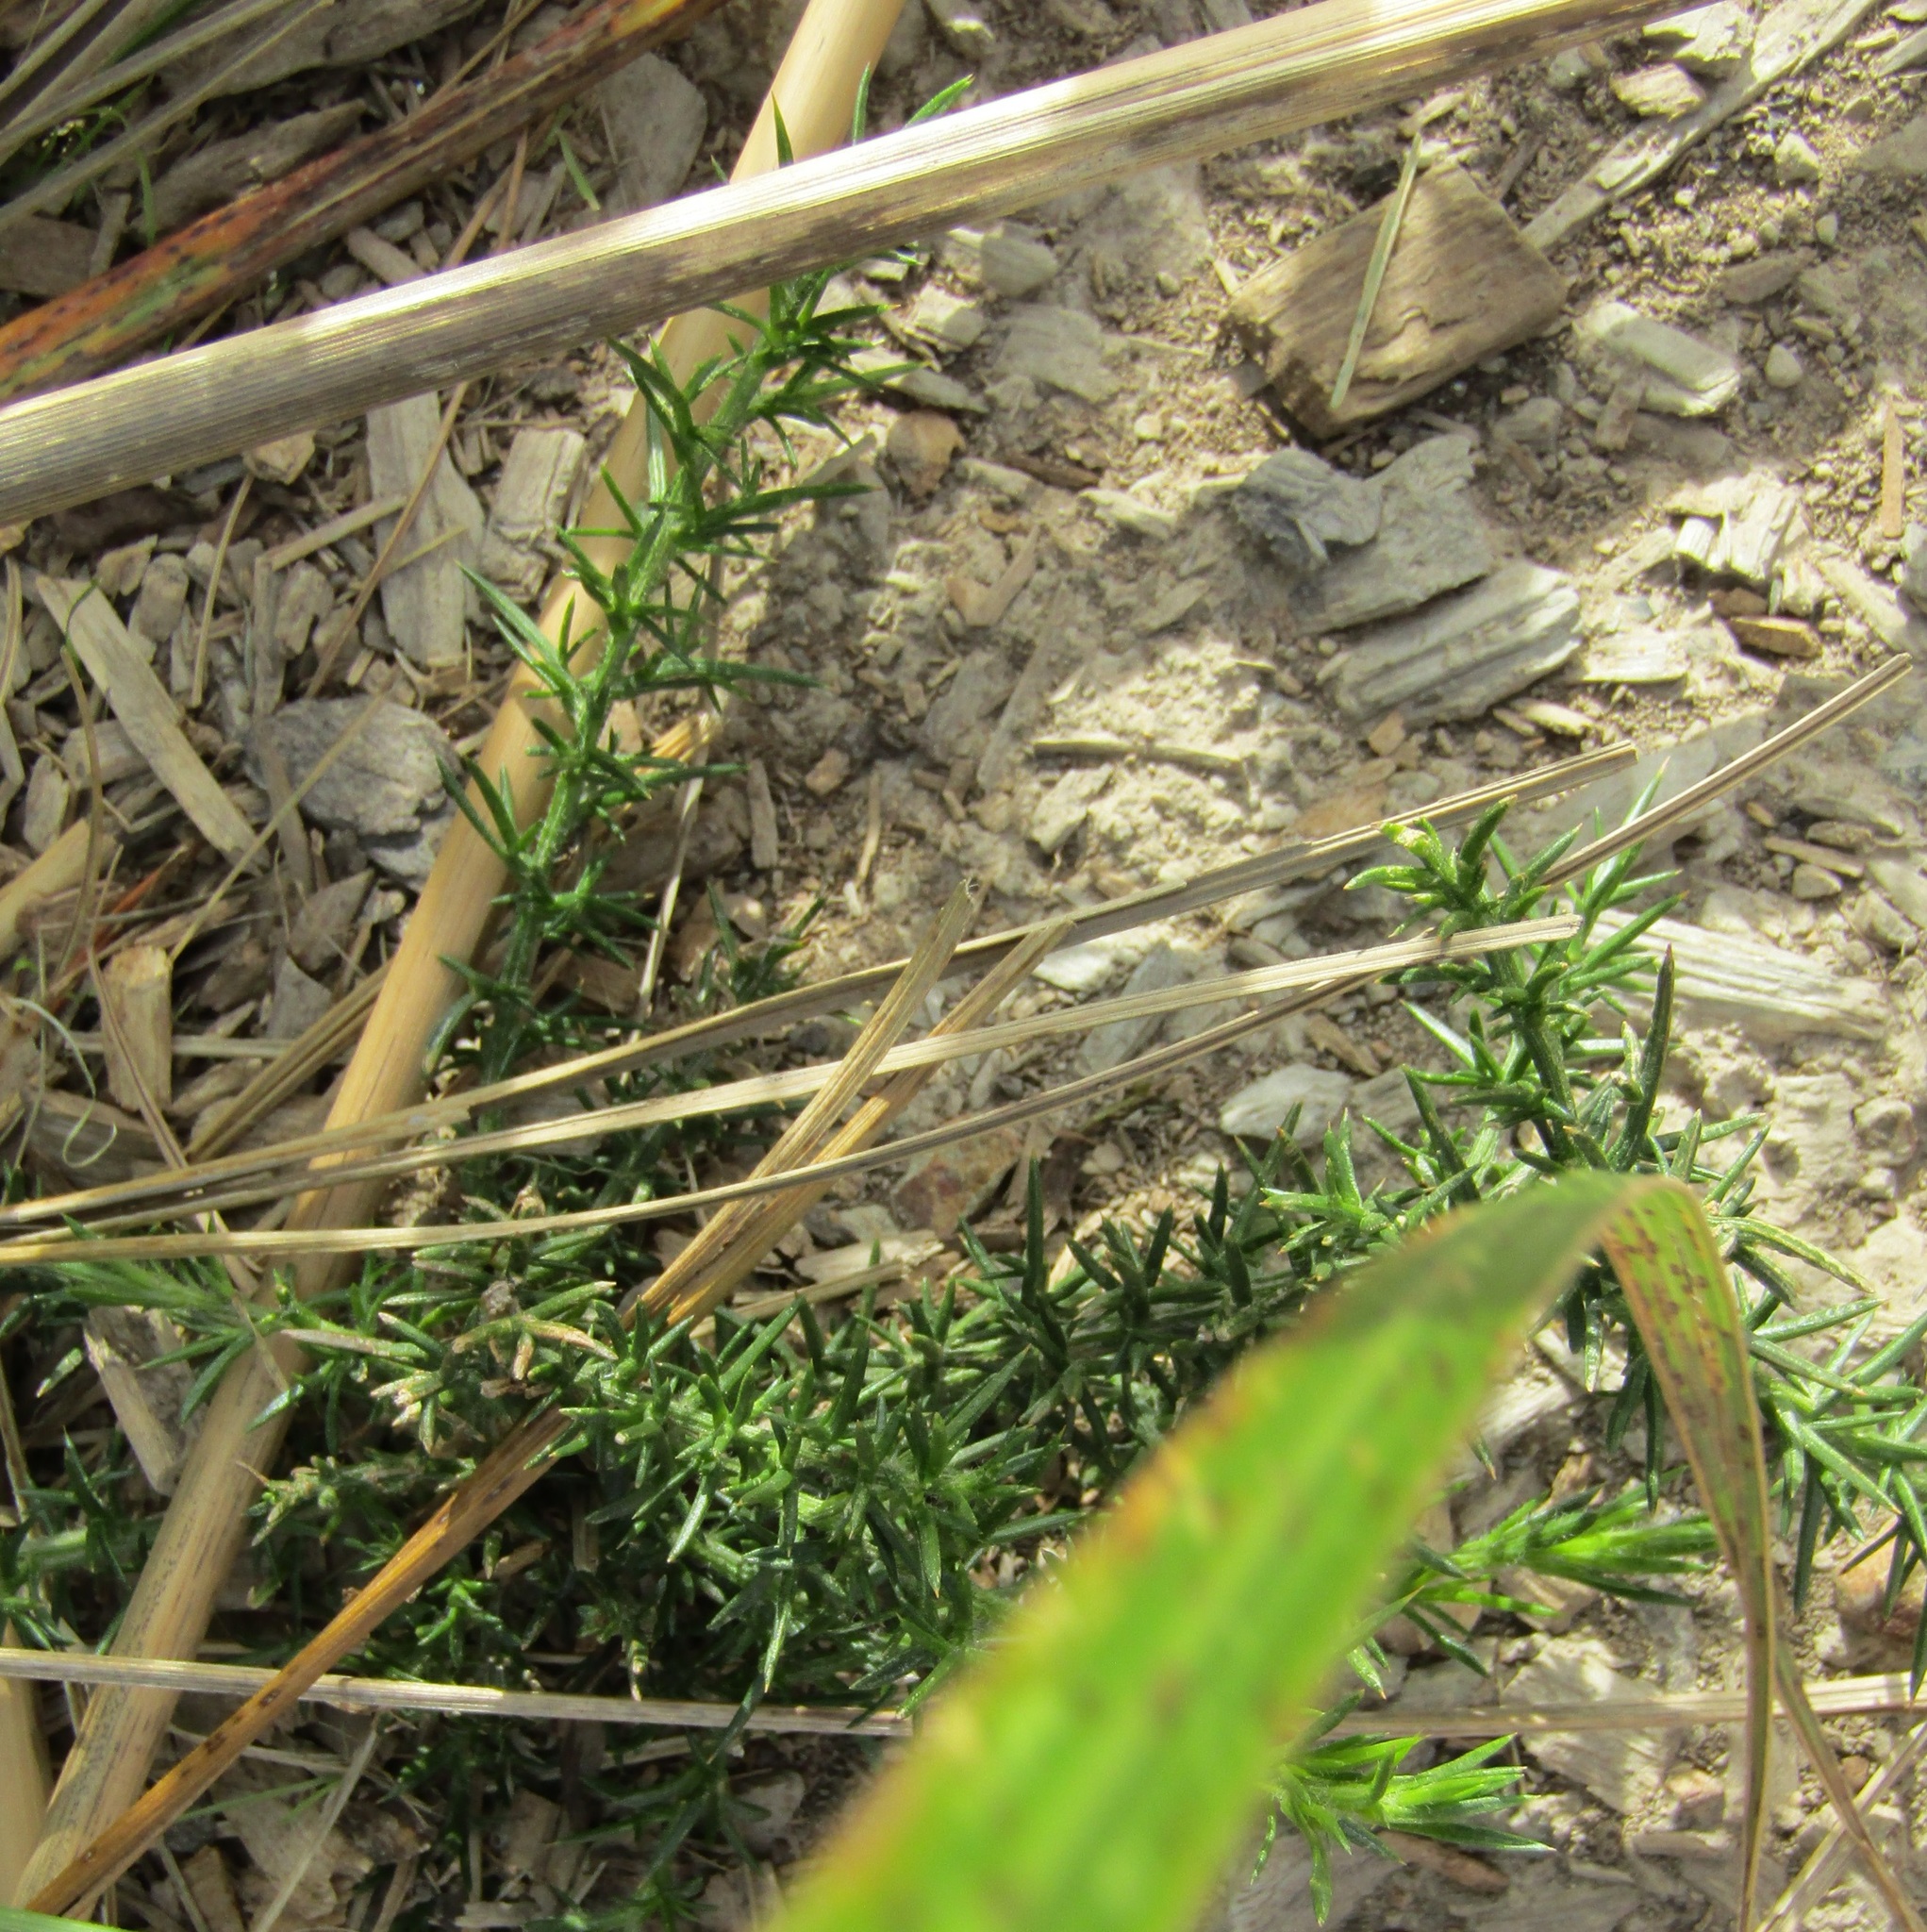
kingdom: Plantae
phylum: Tracheophyta
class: Magnoliopsida
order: Fabales
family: Fabaceae
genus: Ulex
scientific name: Ulex europaeus
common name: Common gorse
